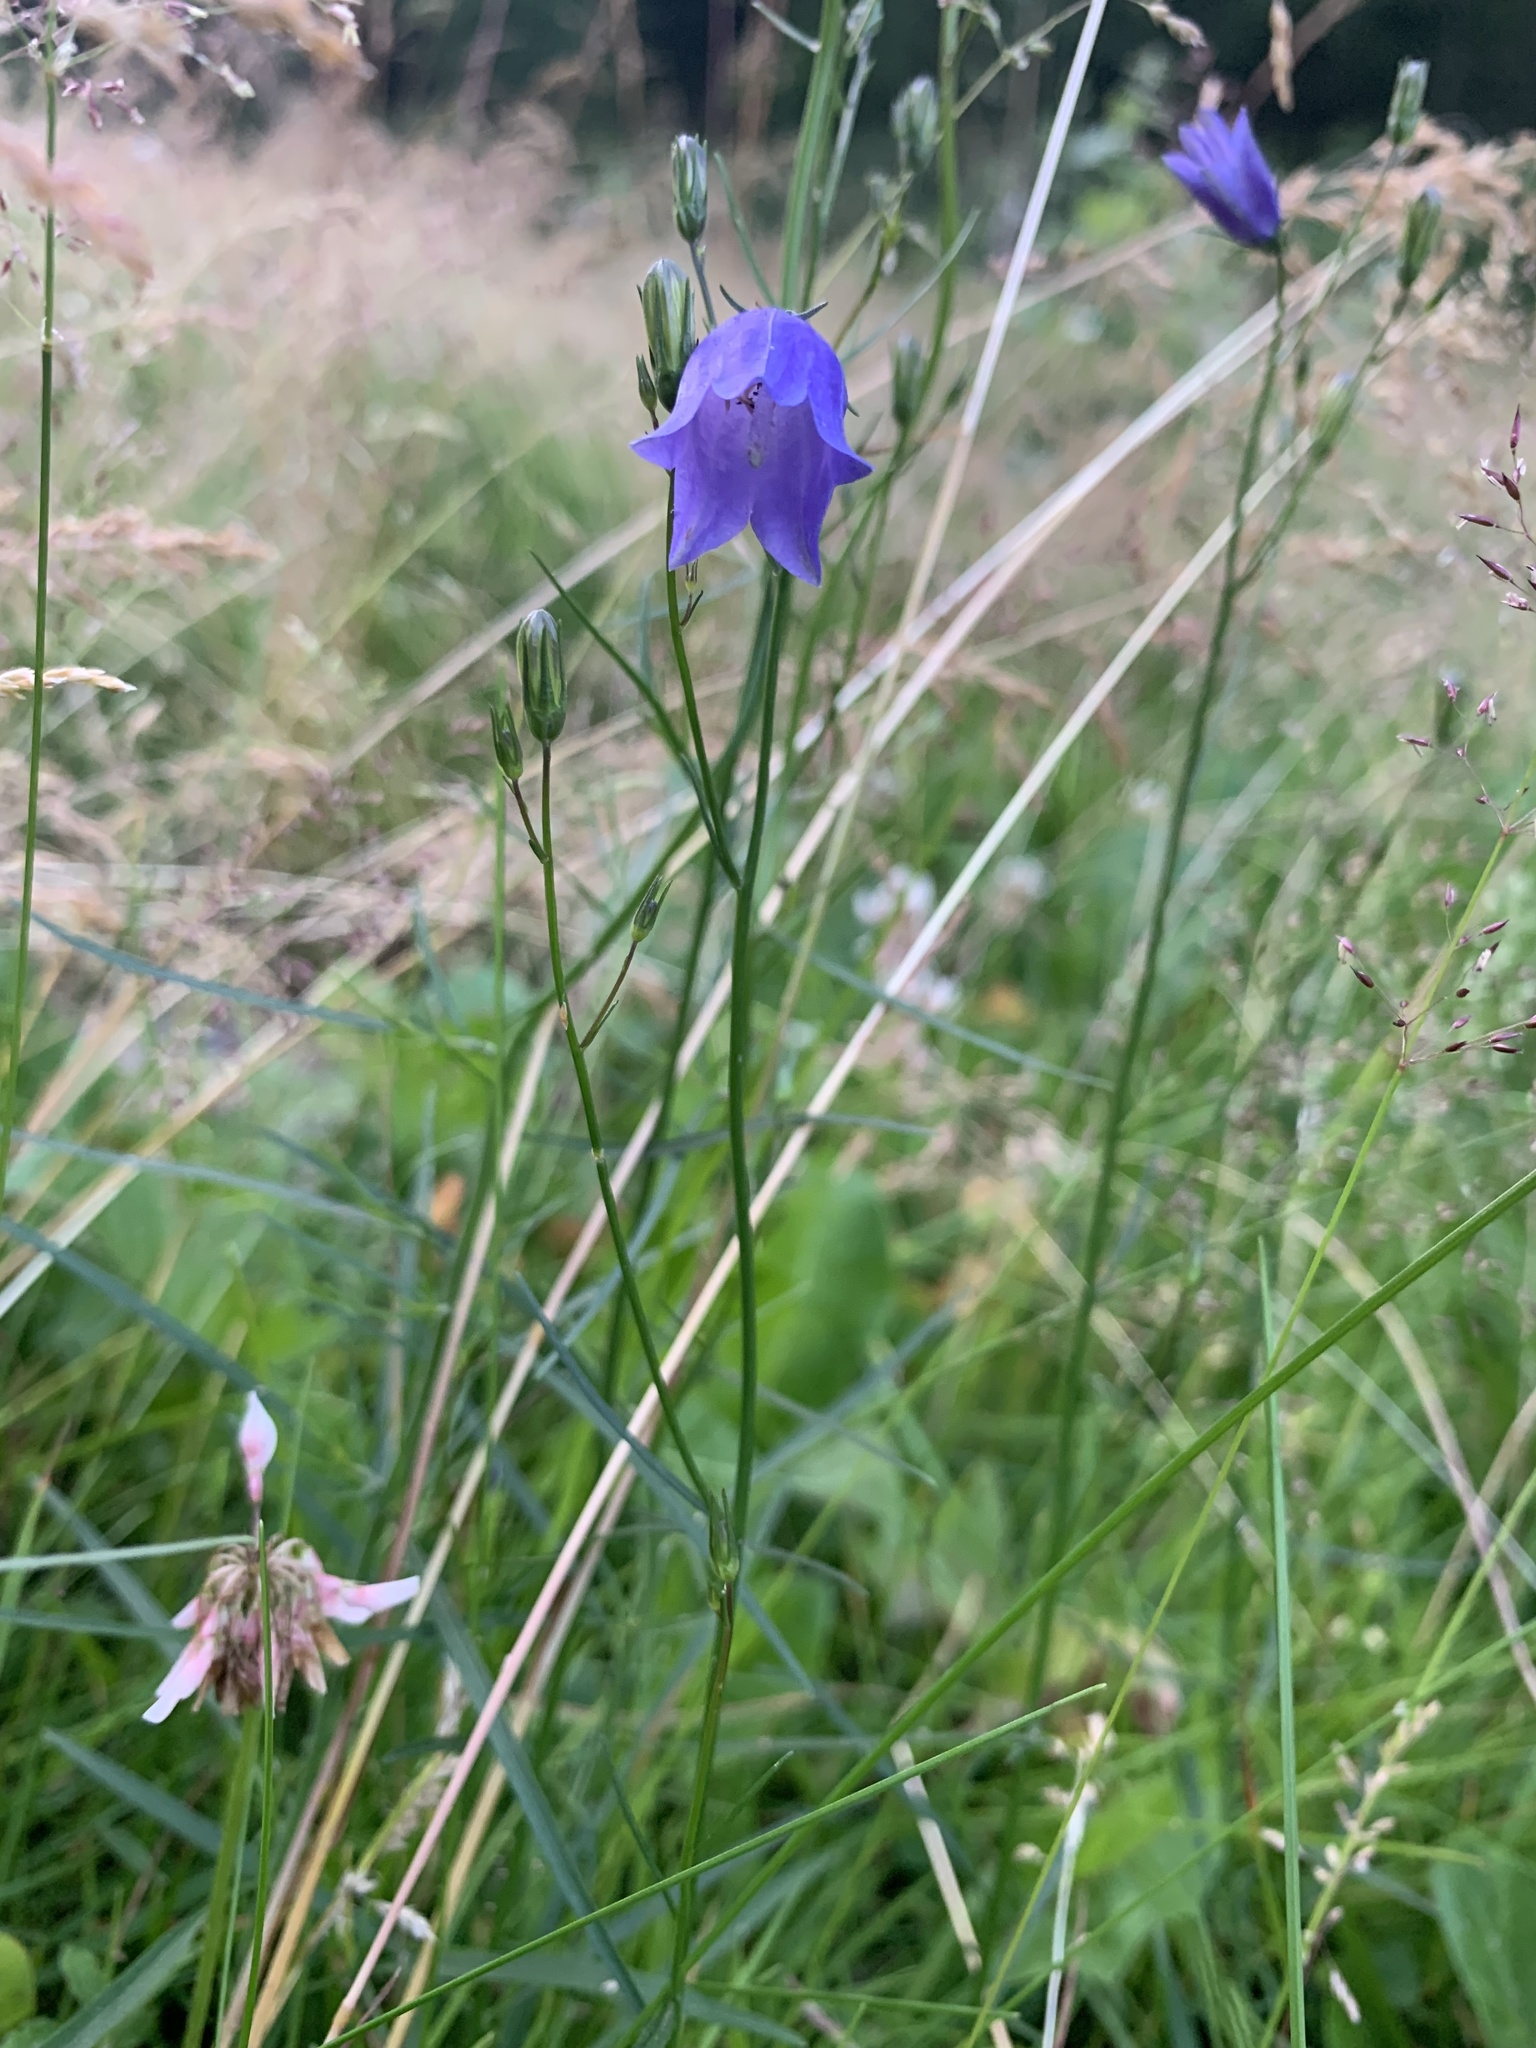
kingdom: Plantae
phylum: Tracheophyta
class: Magnoliopsida
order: Asterales
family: Campanulaceae
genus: Campanula
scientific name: Campanula rotundifolia
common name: Harebell
